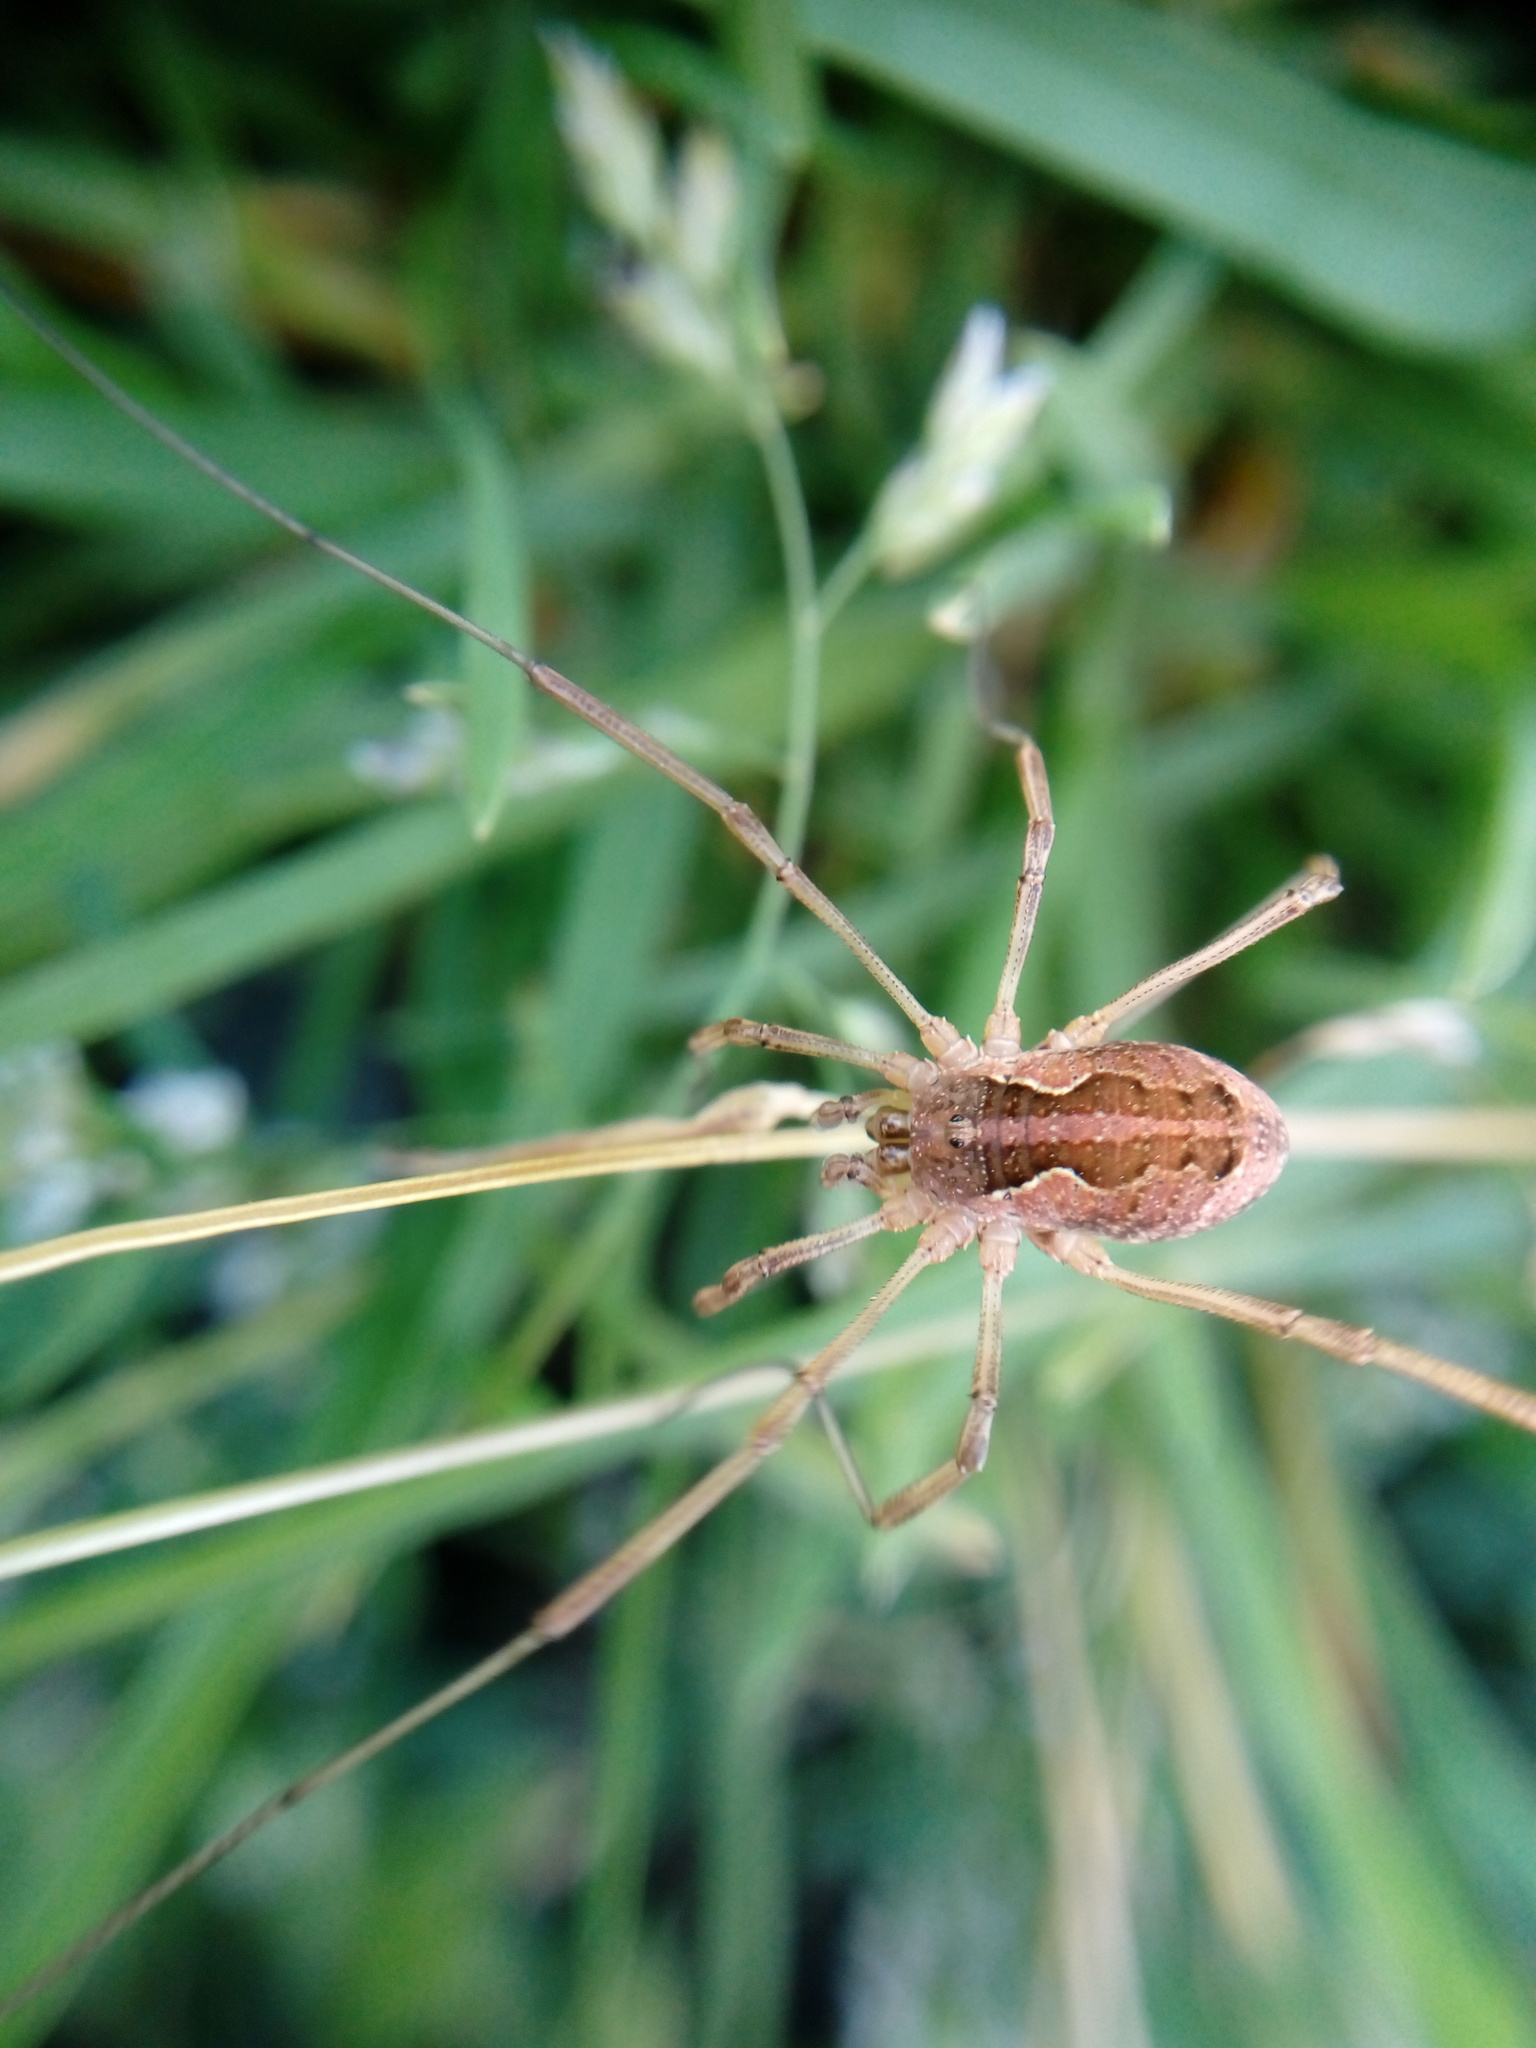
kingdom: Animalia
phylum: Arthropoda
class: Arachnida
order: Opiliones
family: Phalangiidae
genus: Mitopus
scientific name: Mitopus morio
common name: Saddleback harvestman
